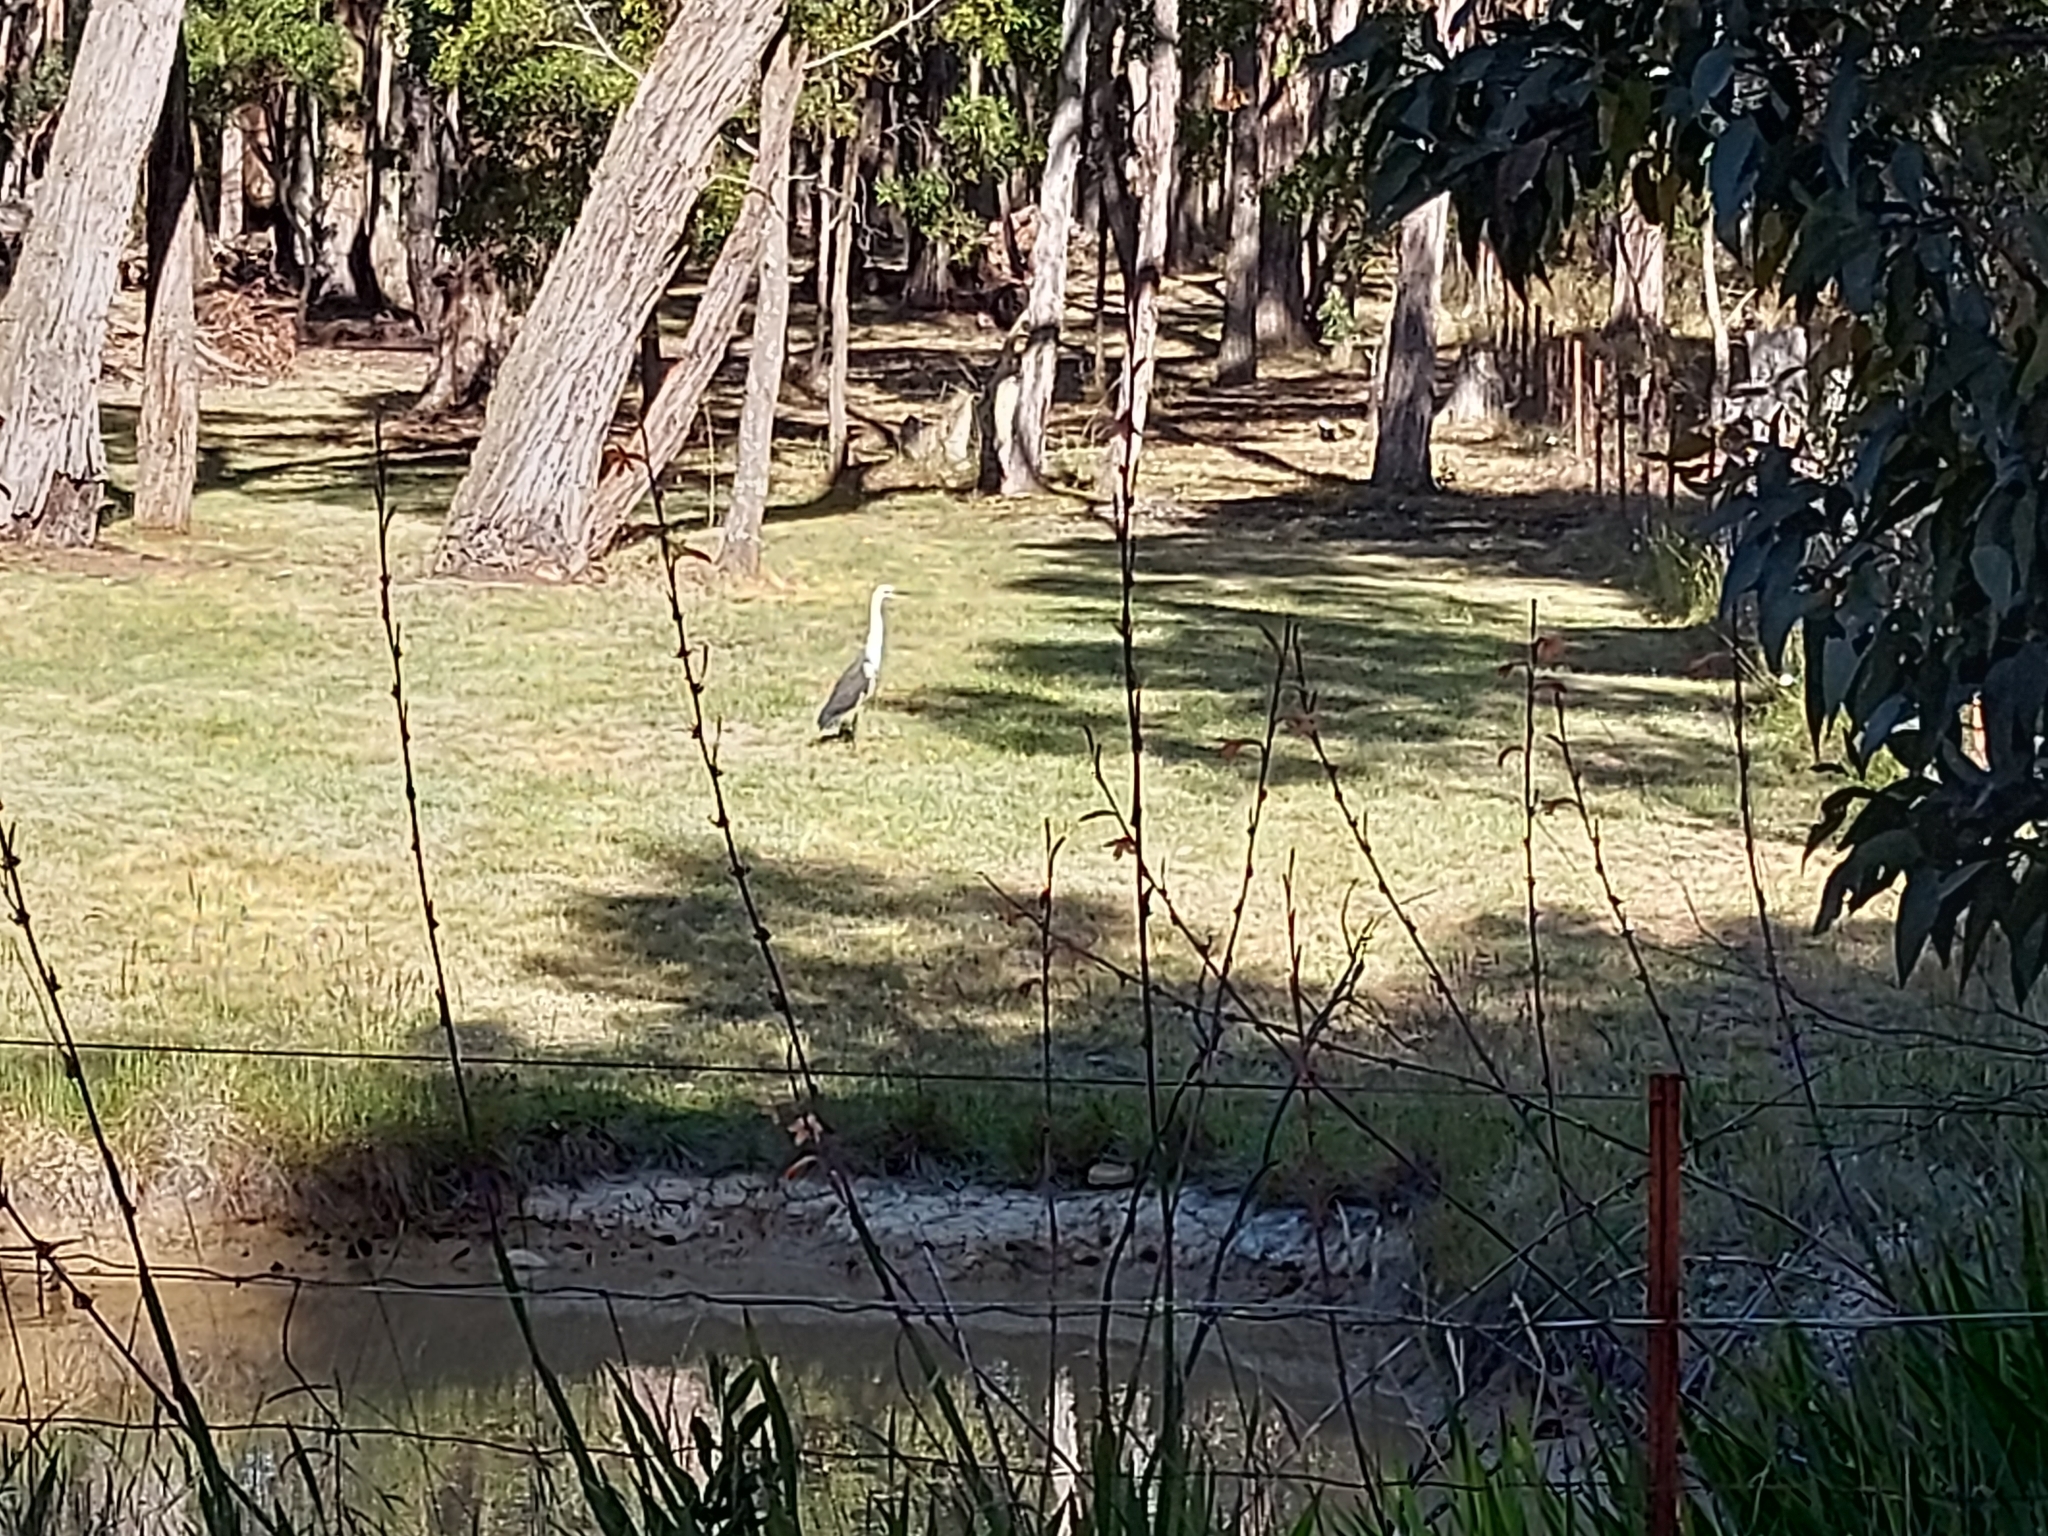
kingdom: Animalia
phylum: Chordata
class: Aves
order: Pelecaniformes
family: Ardeidae
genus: Ardea
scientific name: Ardea pacifica
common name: White-necked heron
